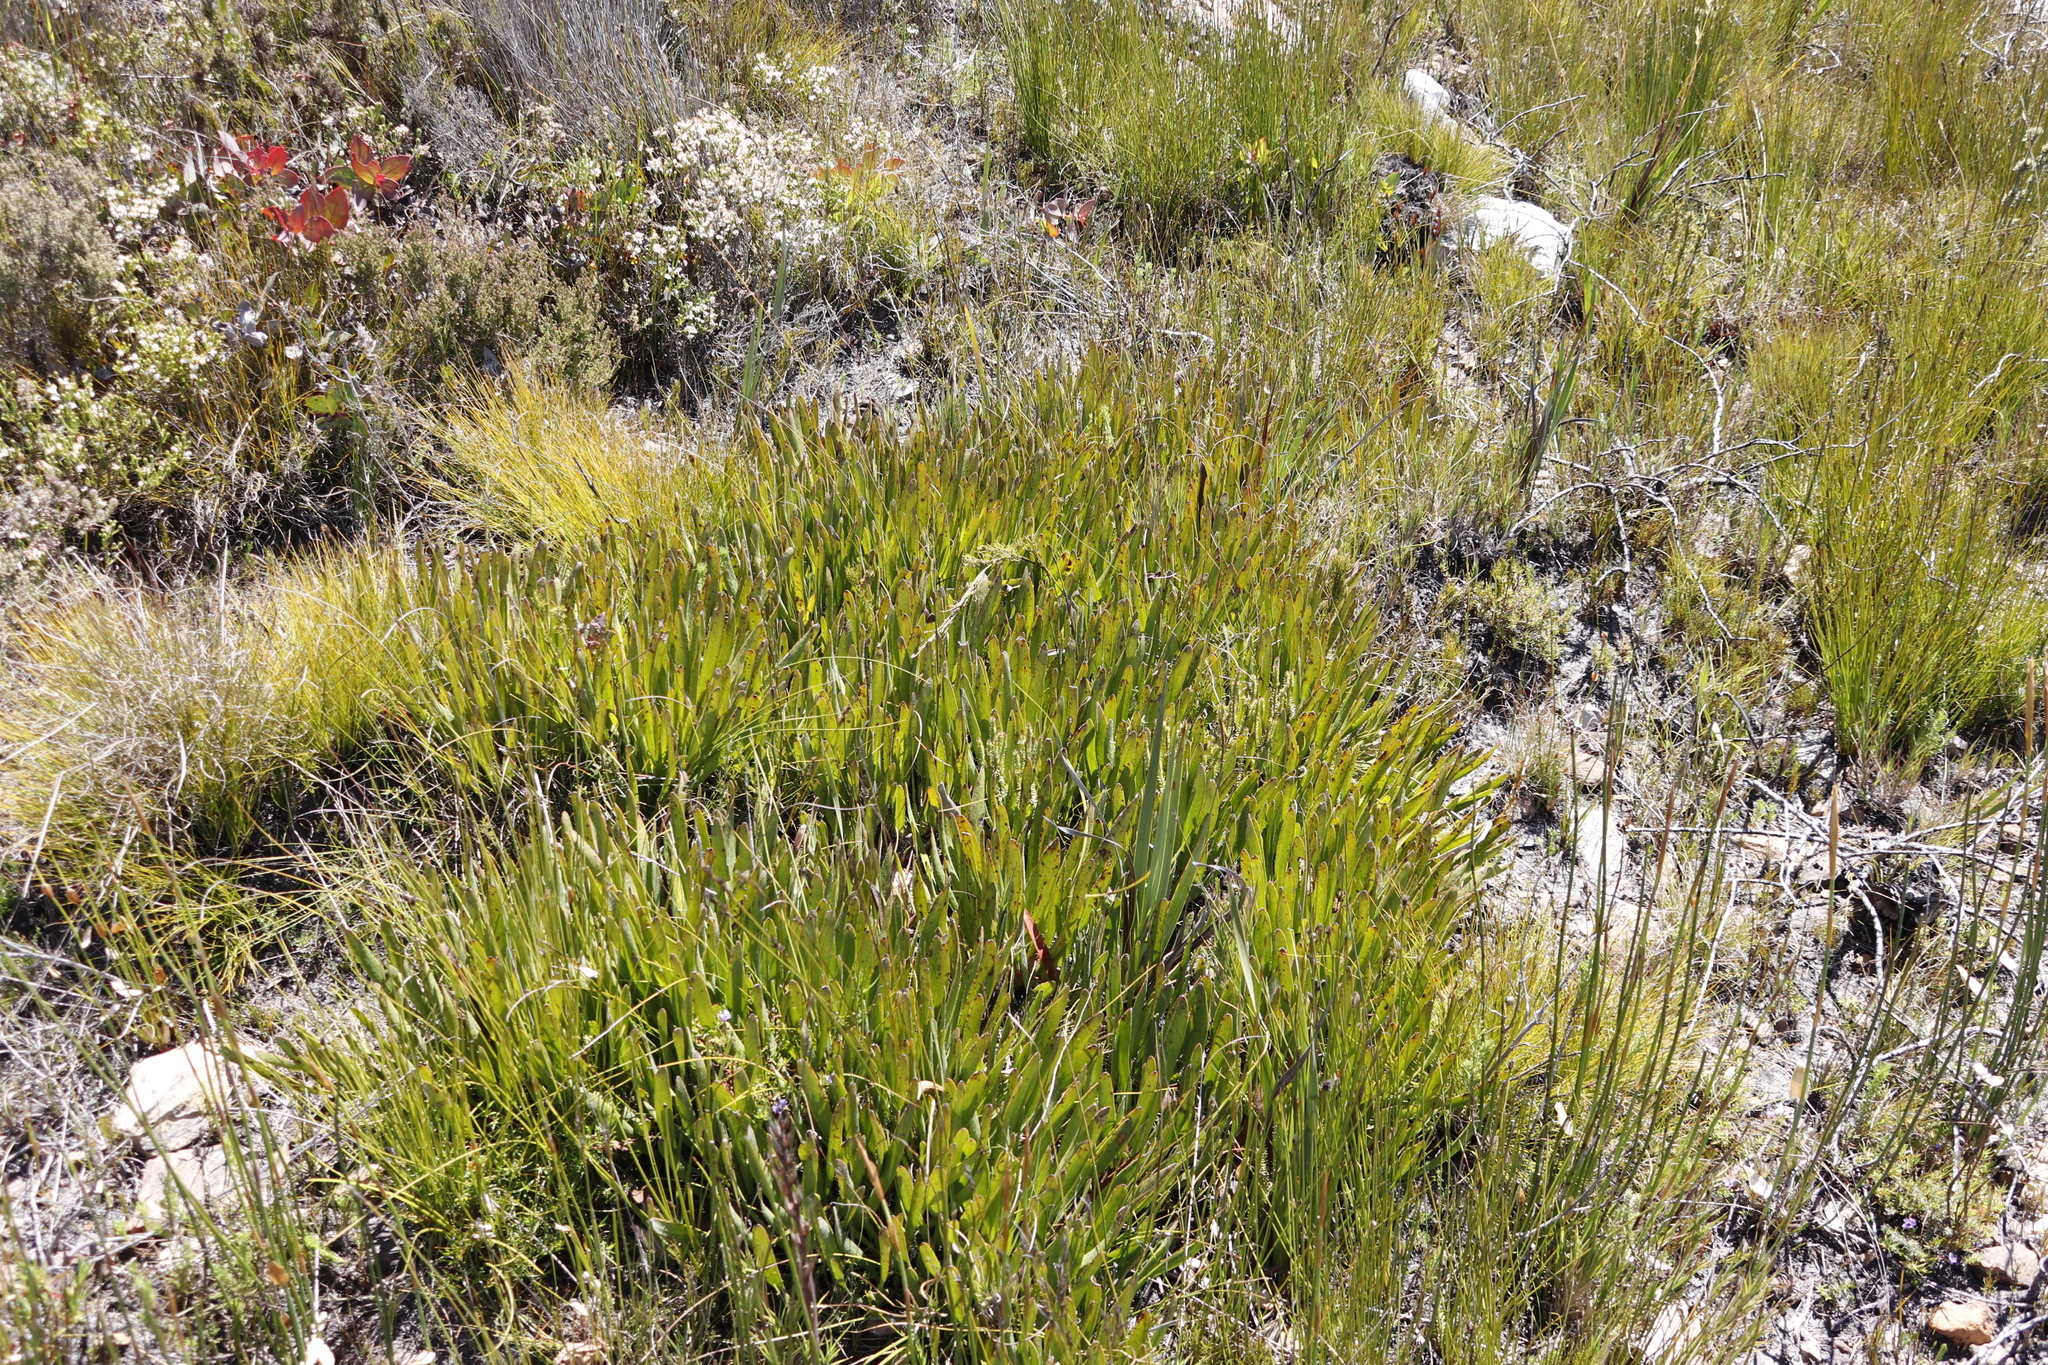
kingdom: Plantae
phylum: Tracheophyta
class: Magnoliopsida
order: Proteales
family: Proteaceae
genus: Protea
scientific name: Protea scabra
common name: Sandpaper-leaf sugarbush
